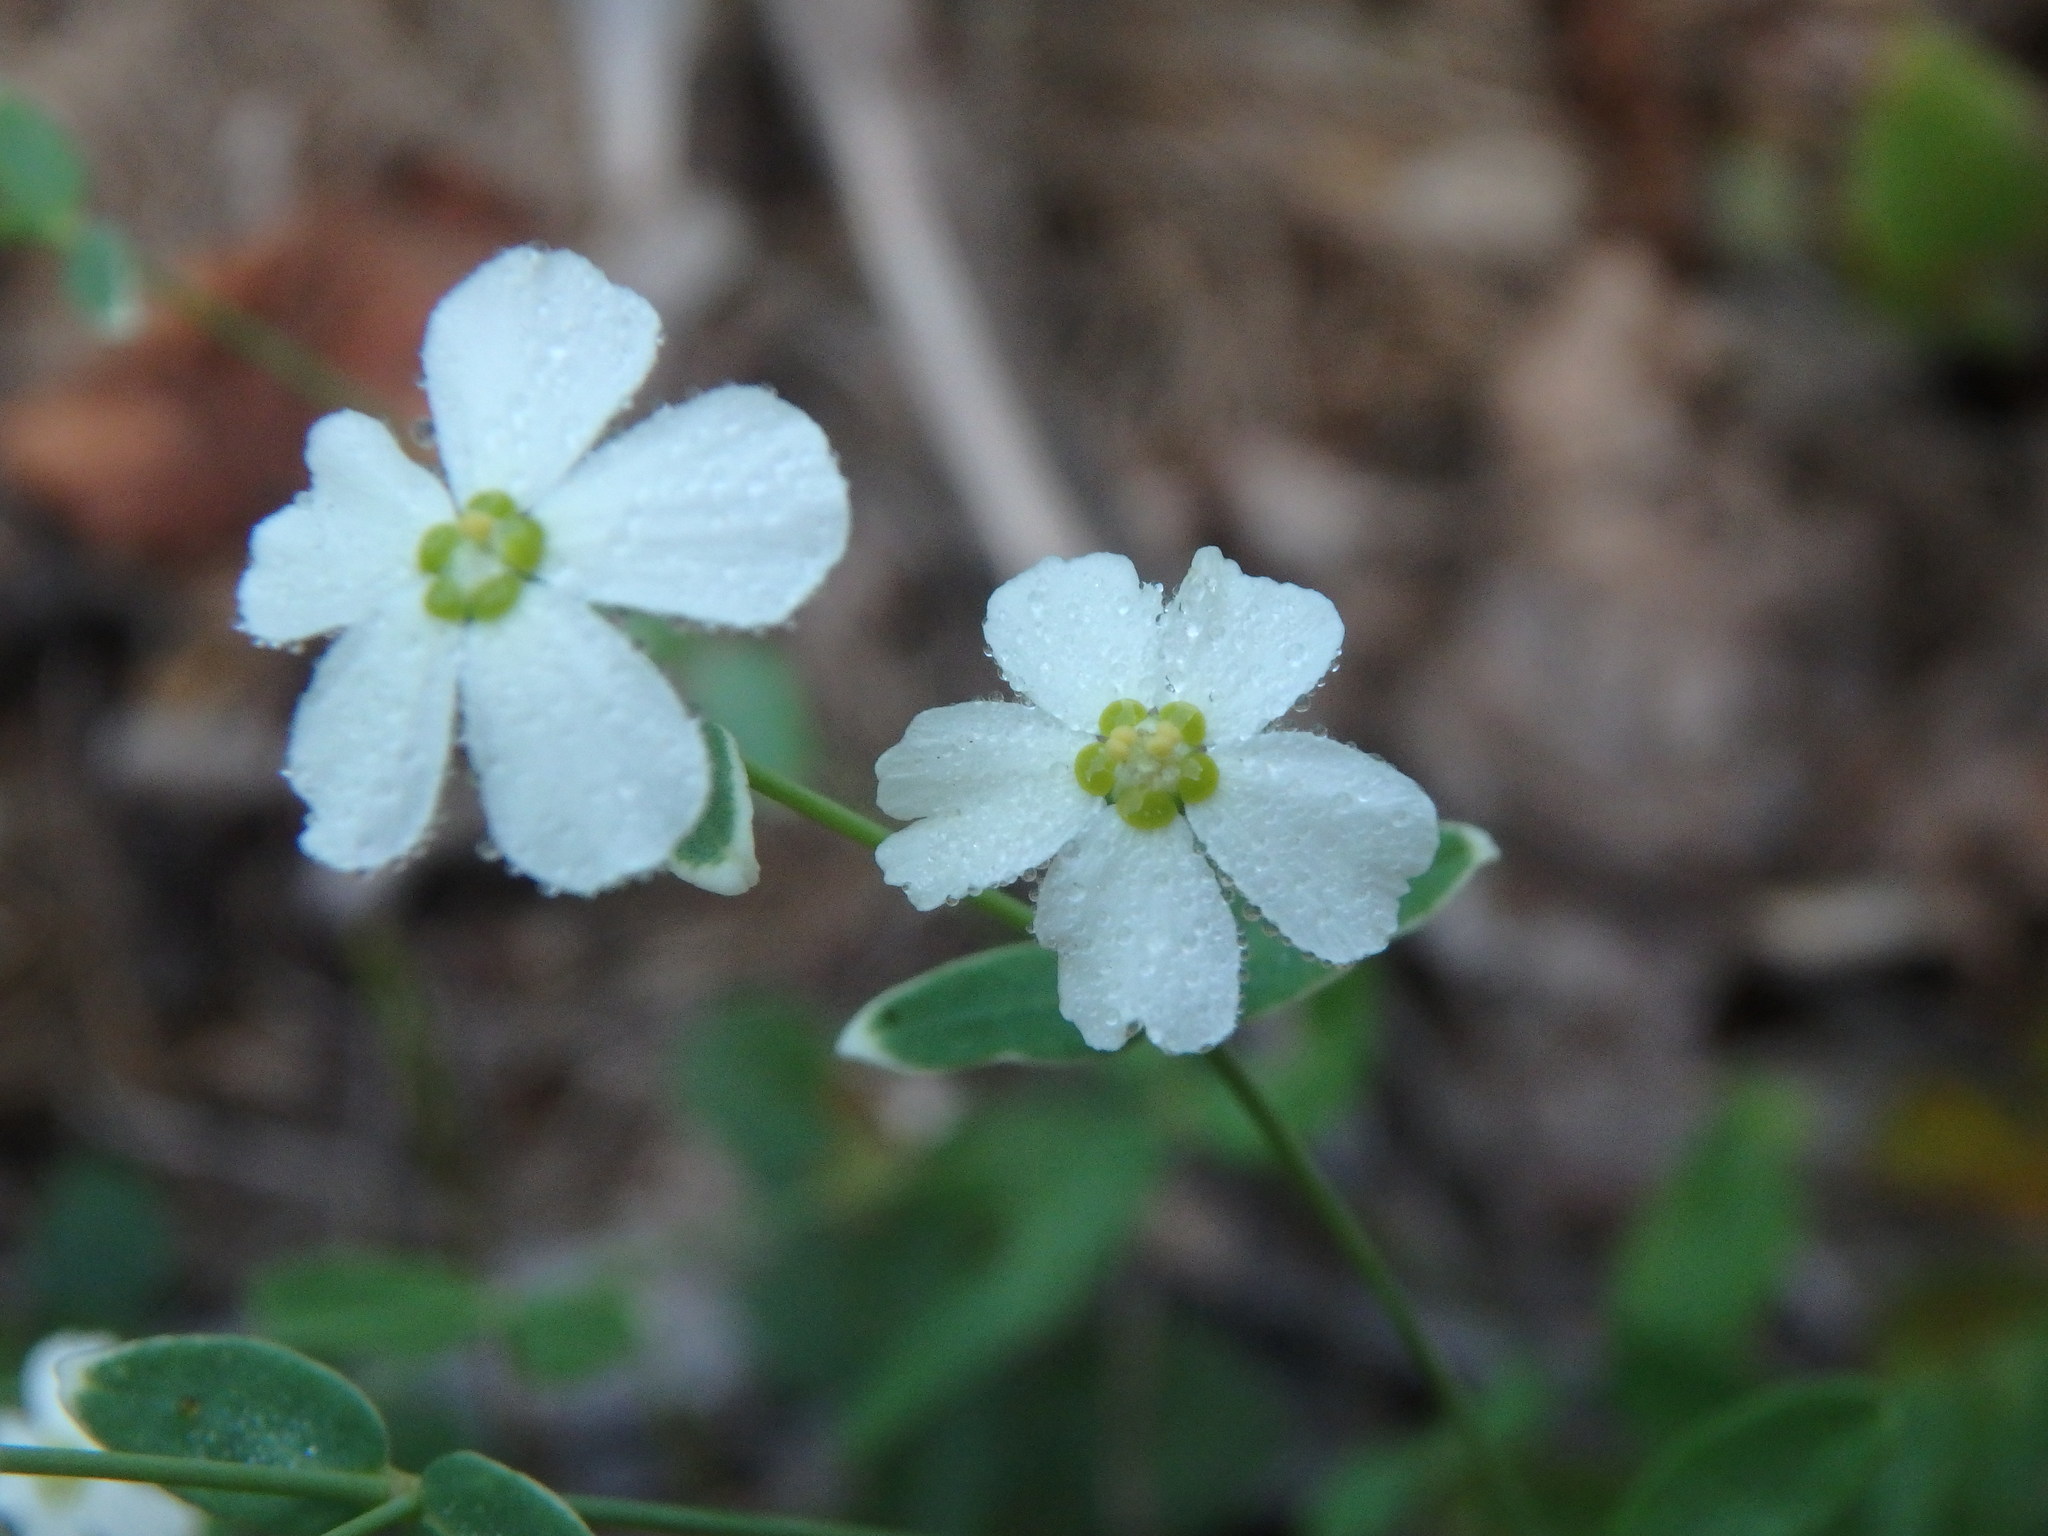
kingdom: Plantae
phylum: Tracheophyta
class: Magnoliopsida
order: Malpighiales
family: Euphorbiaceae
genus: Euphorbia
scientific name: Euphorbia corollata
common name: Flowering spurge
